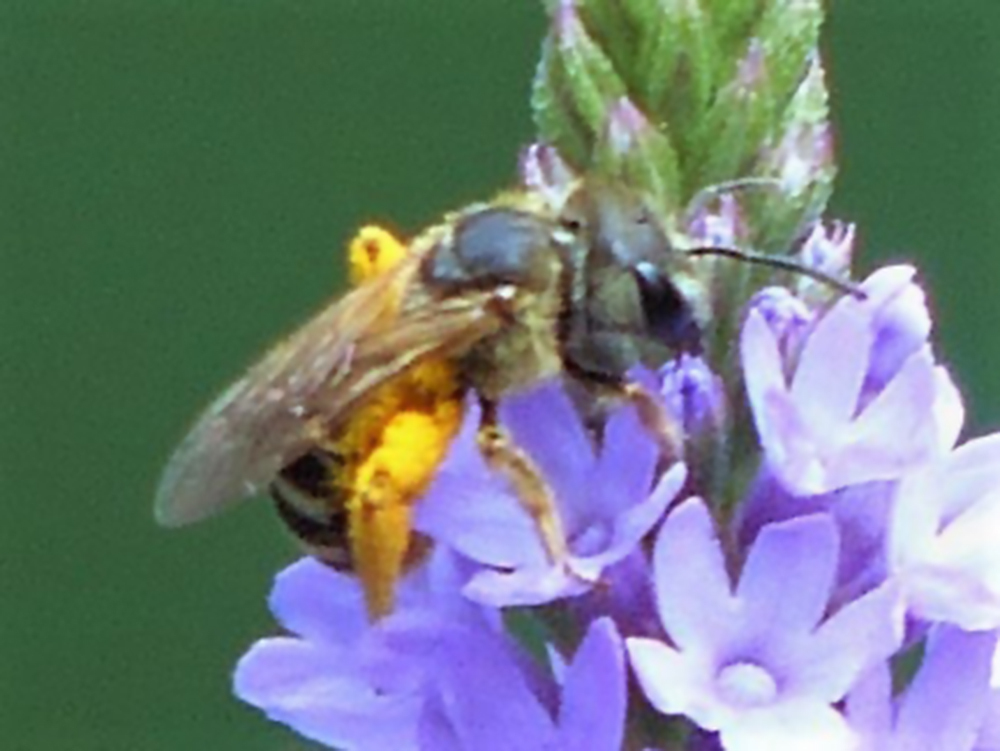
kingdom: Animalia
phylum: Arthropoda
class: Insecta
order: Hymenoptera
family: Halictidae
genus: Halictus
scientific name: Halictus ligatus
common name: Ligated furrow bee
